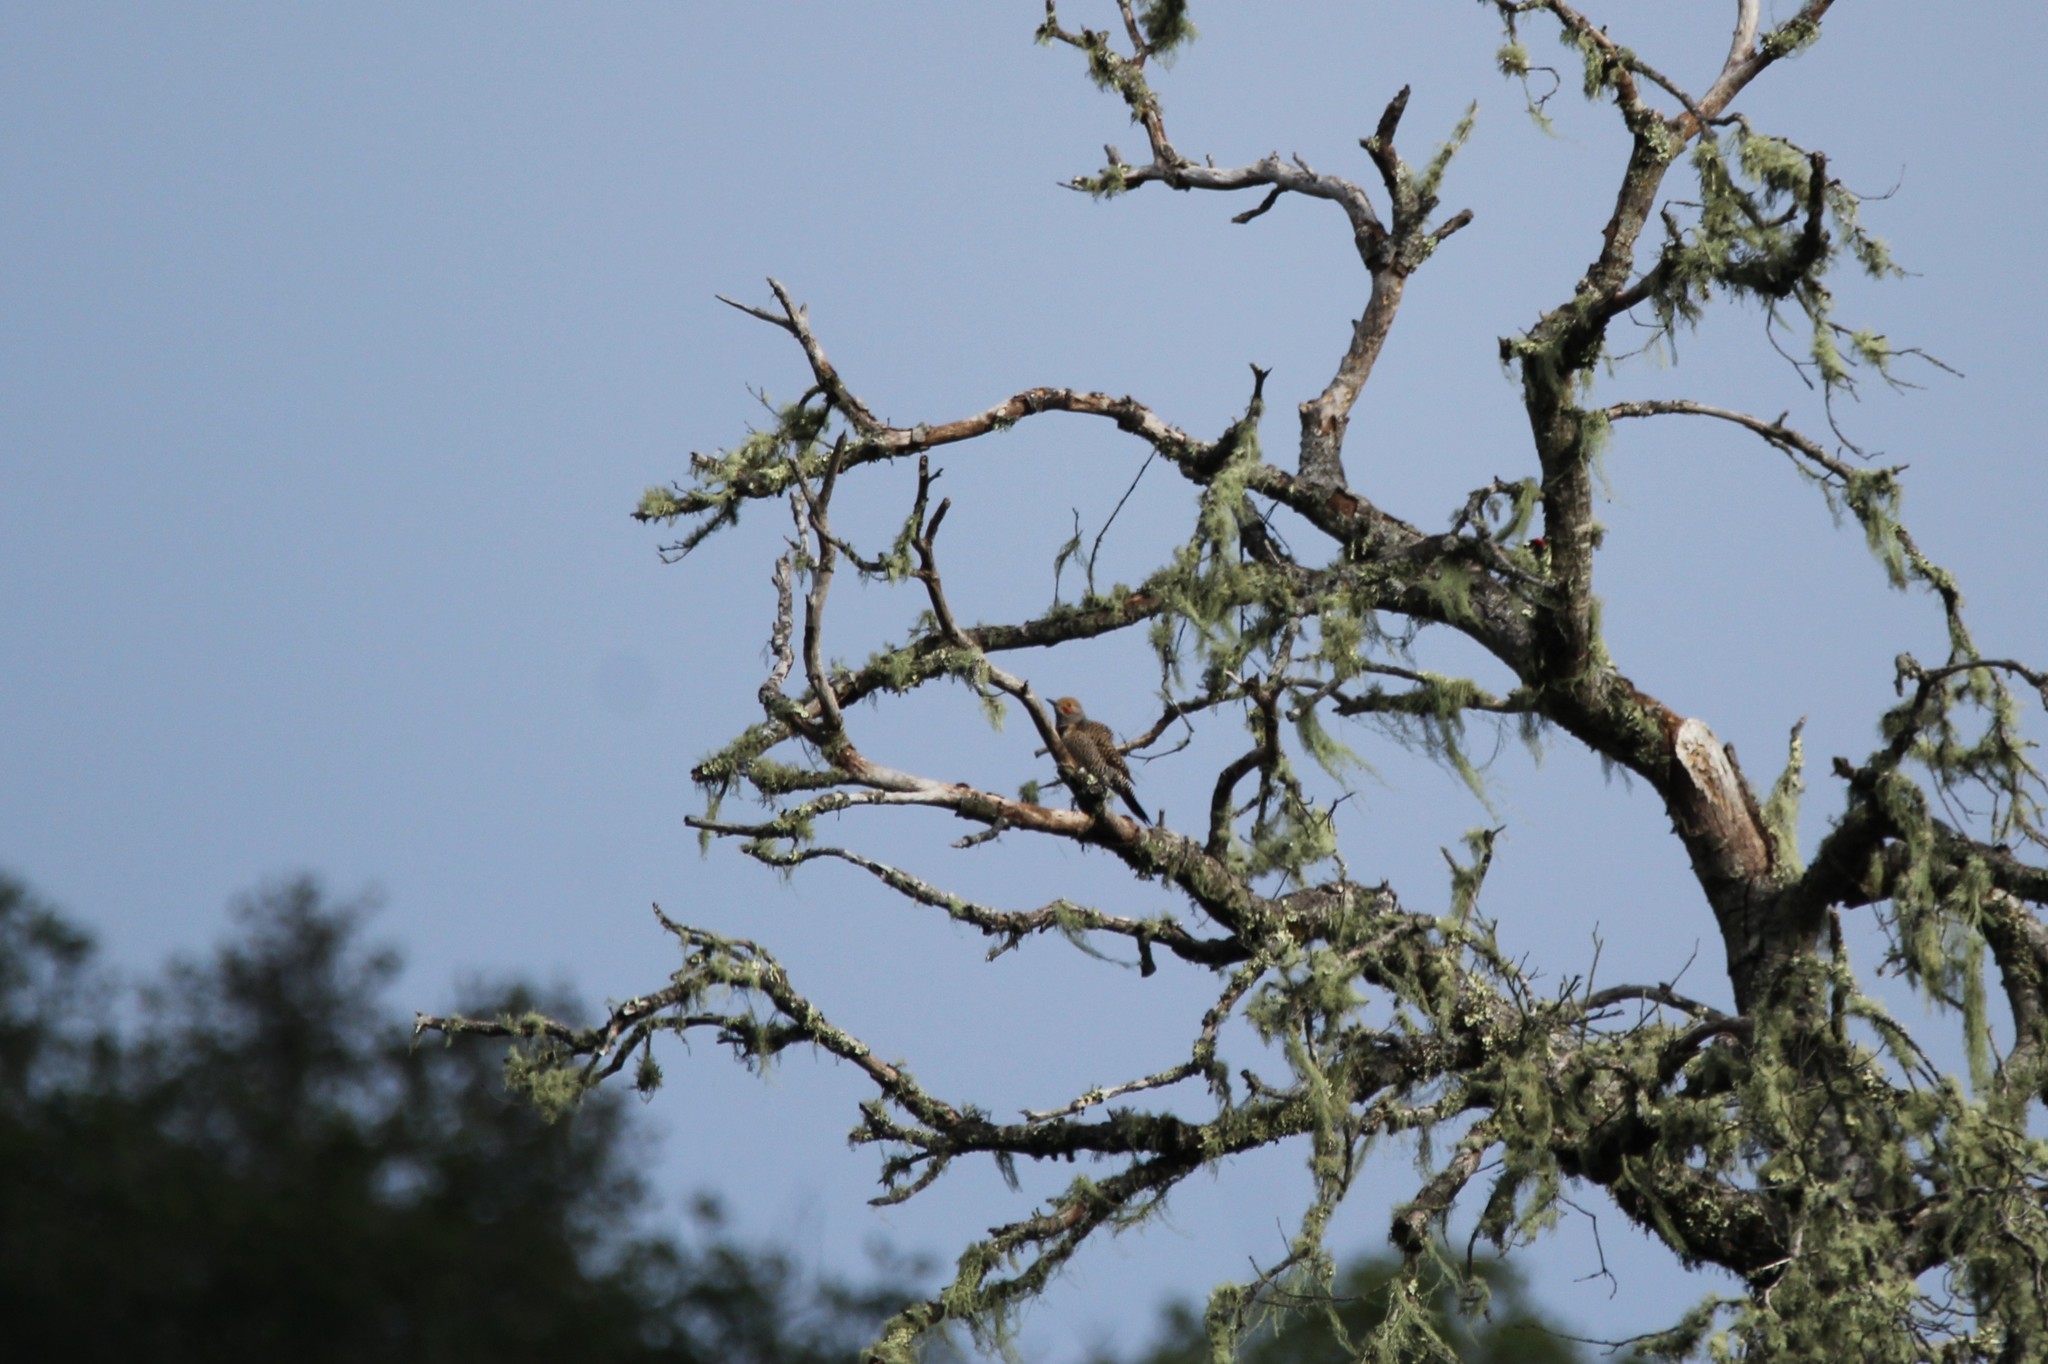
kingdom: Animalia
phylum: Chordata
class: Aves
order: Piciformes
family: Picidae
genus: Colaptes
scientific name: Colaptes auratus
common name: Northern flicker
